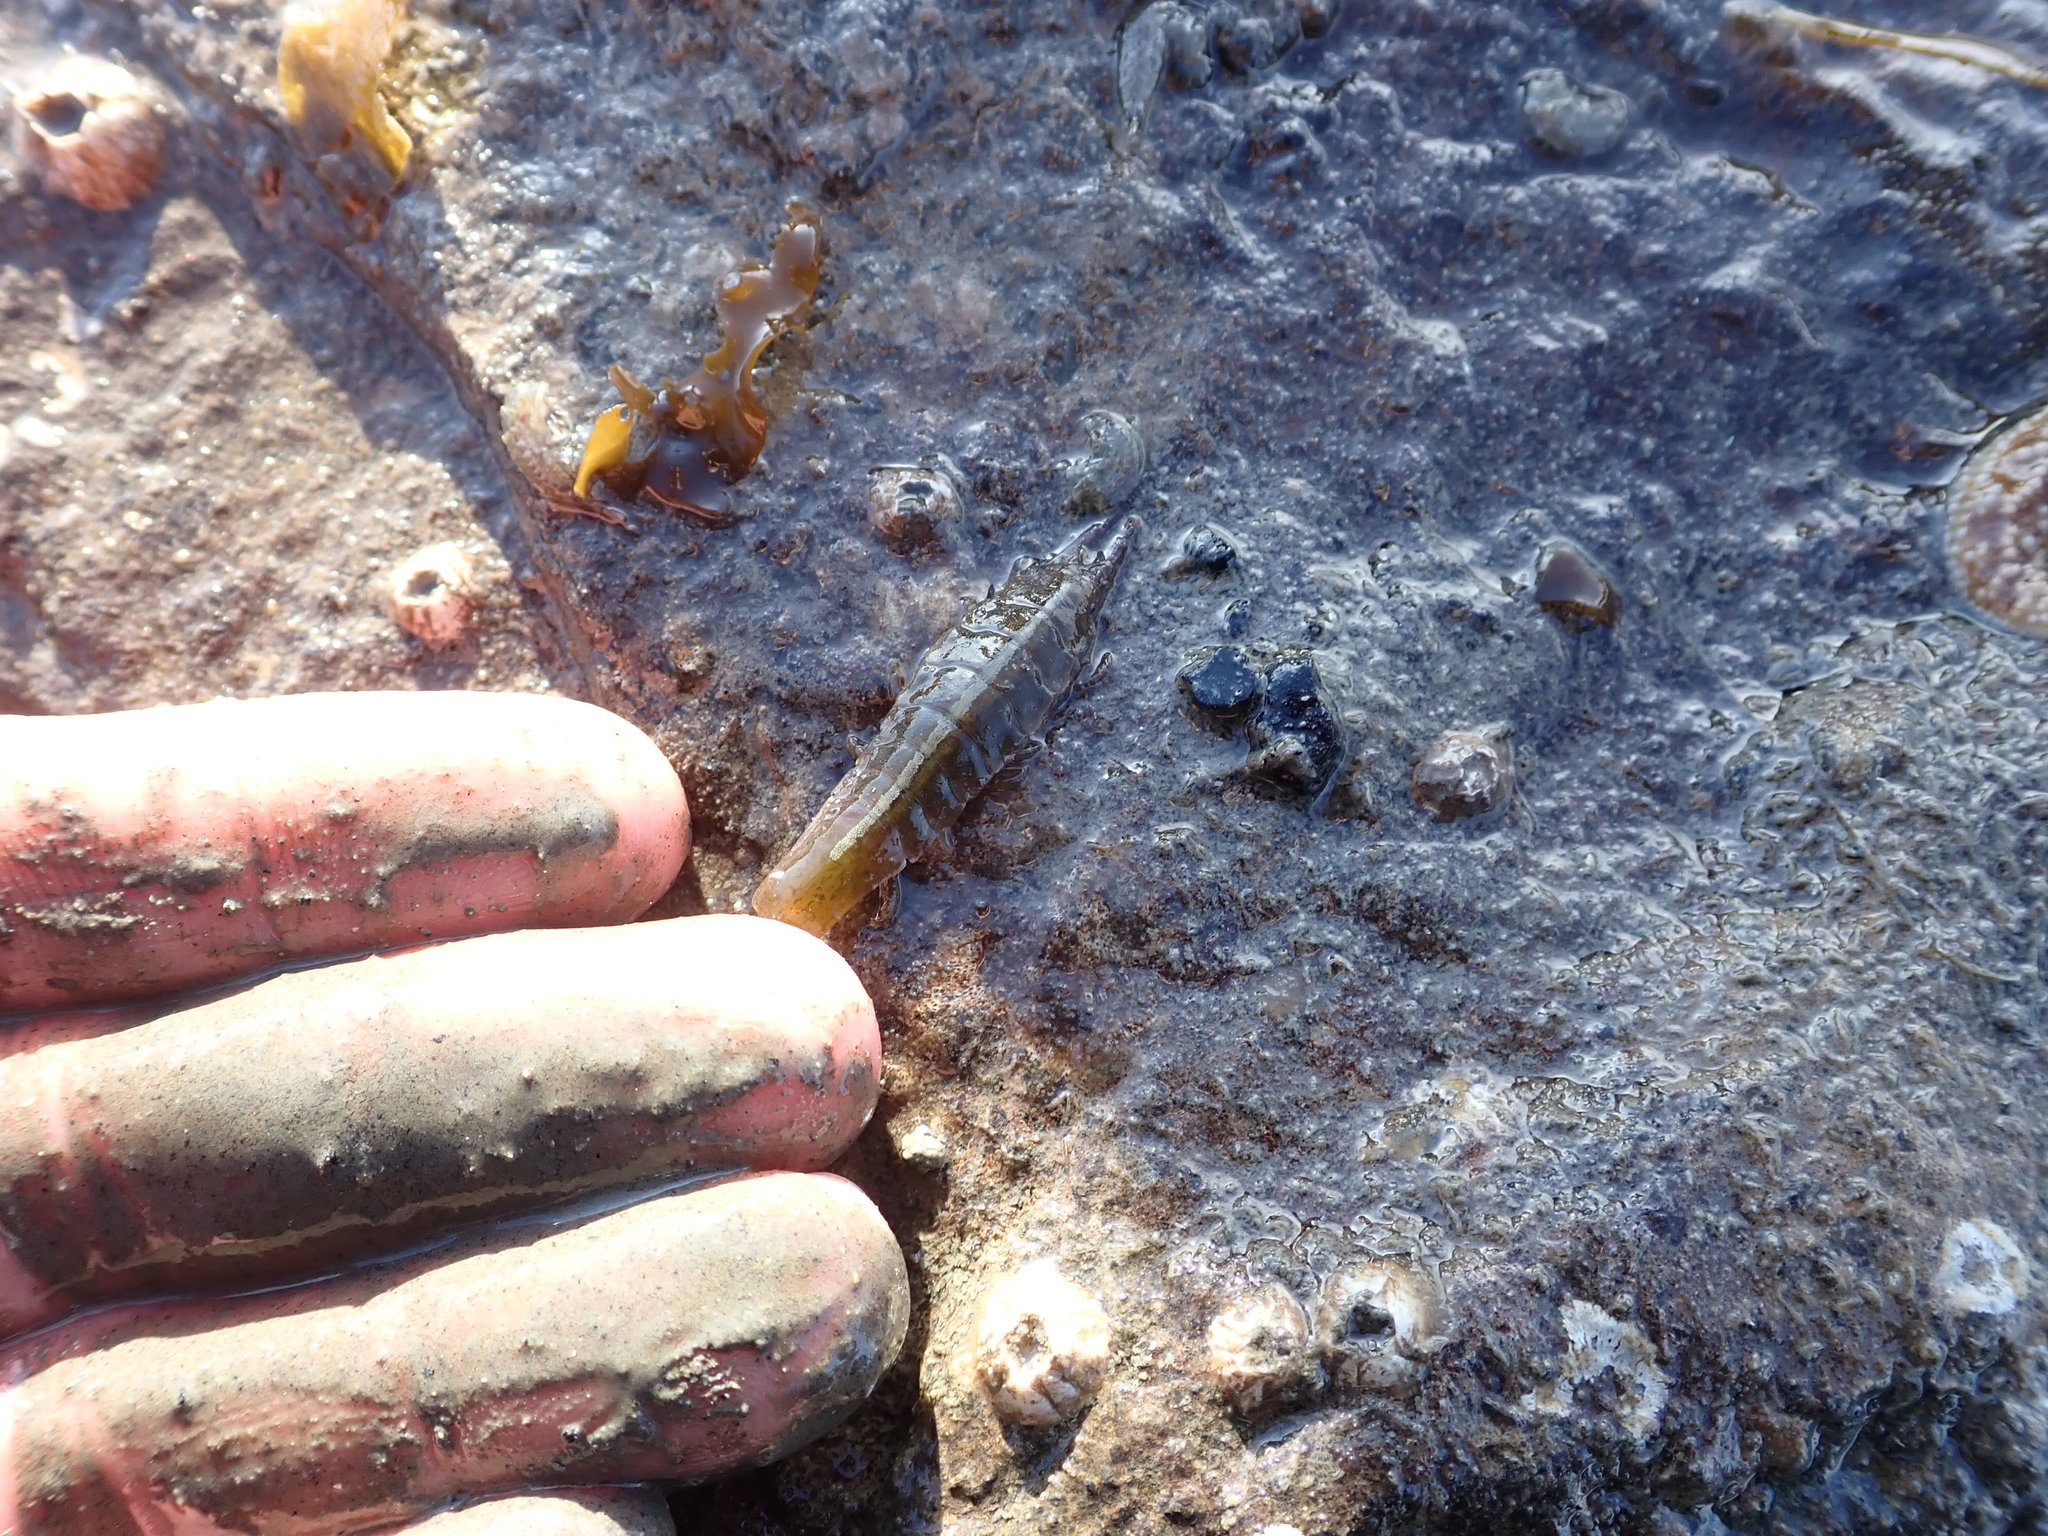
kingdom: Animalia
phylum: Arthropoda
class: Malacostraca
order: Isopoda
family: Idoteidae
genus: Idotea
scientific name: Idotea urotoma
